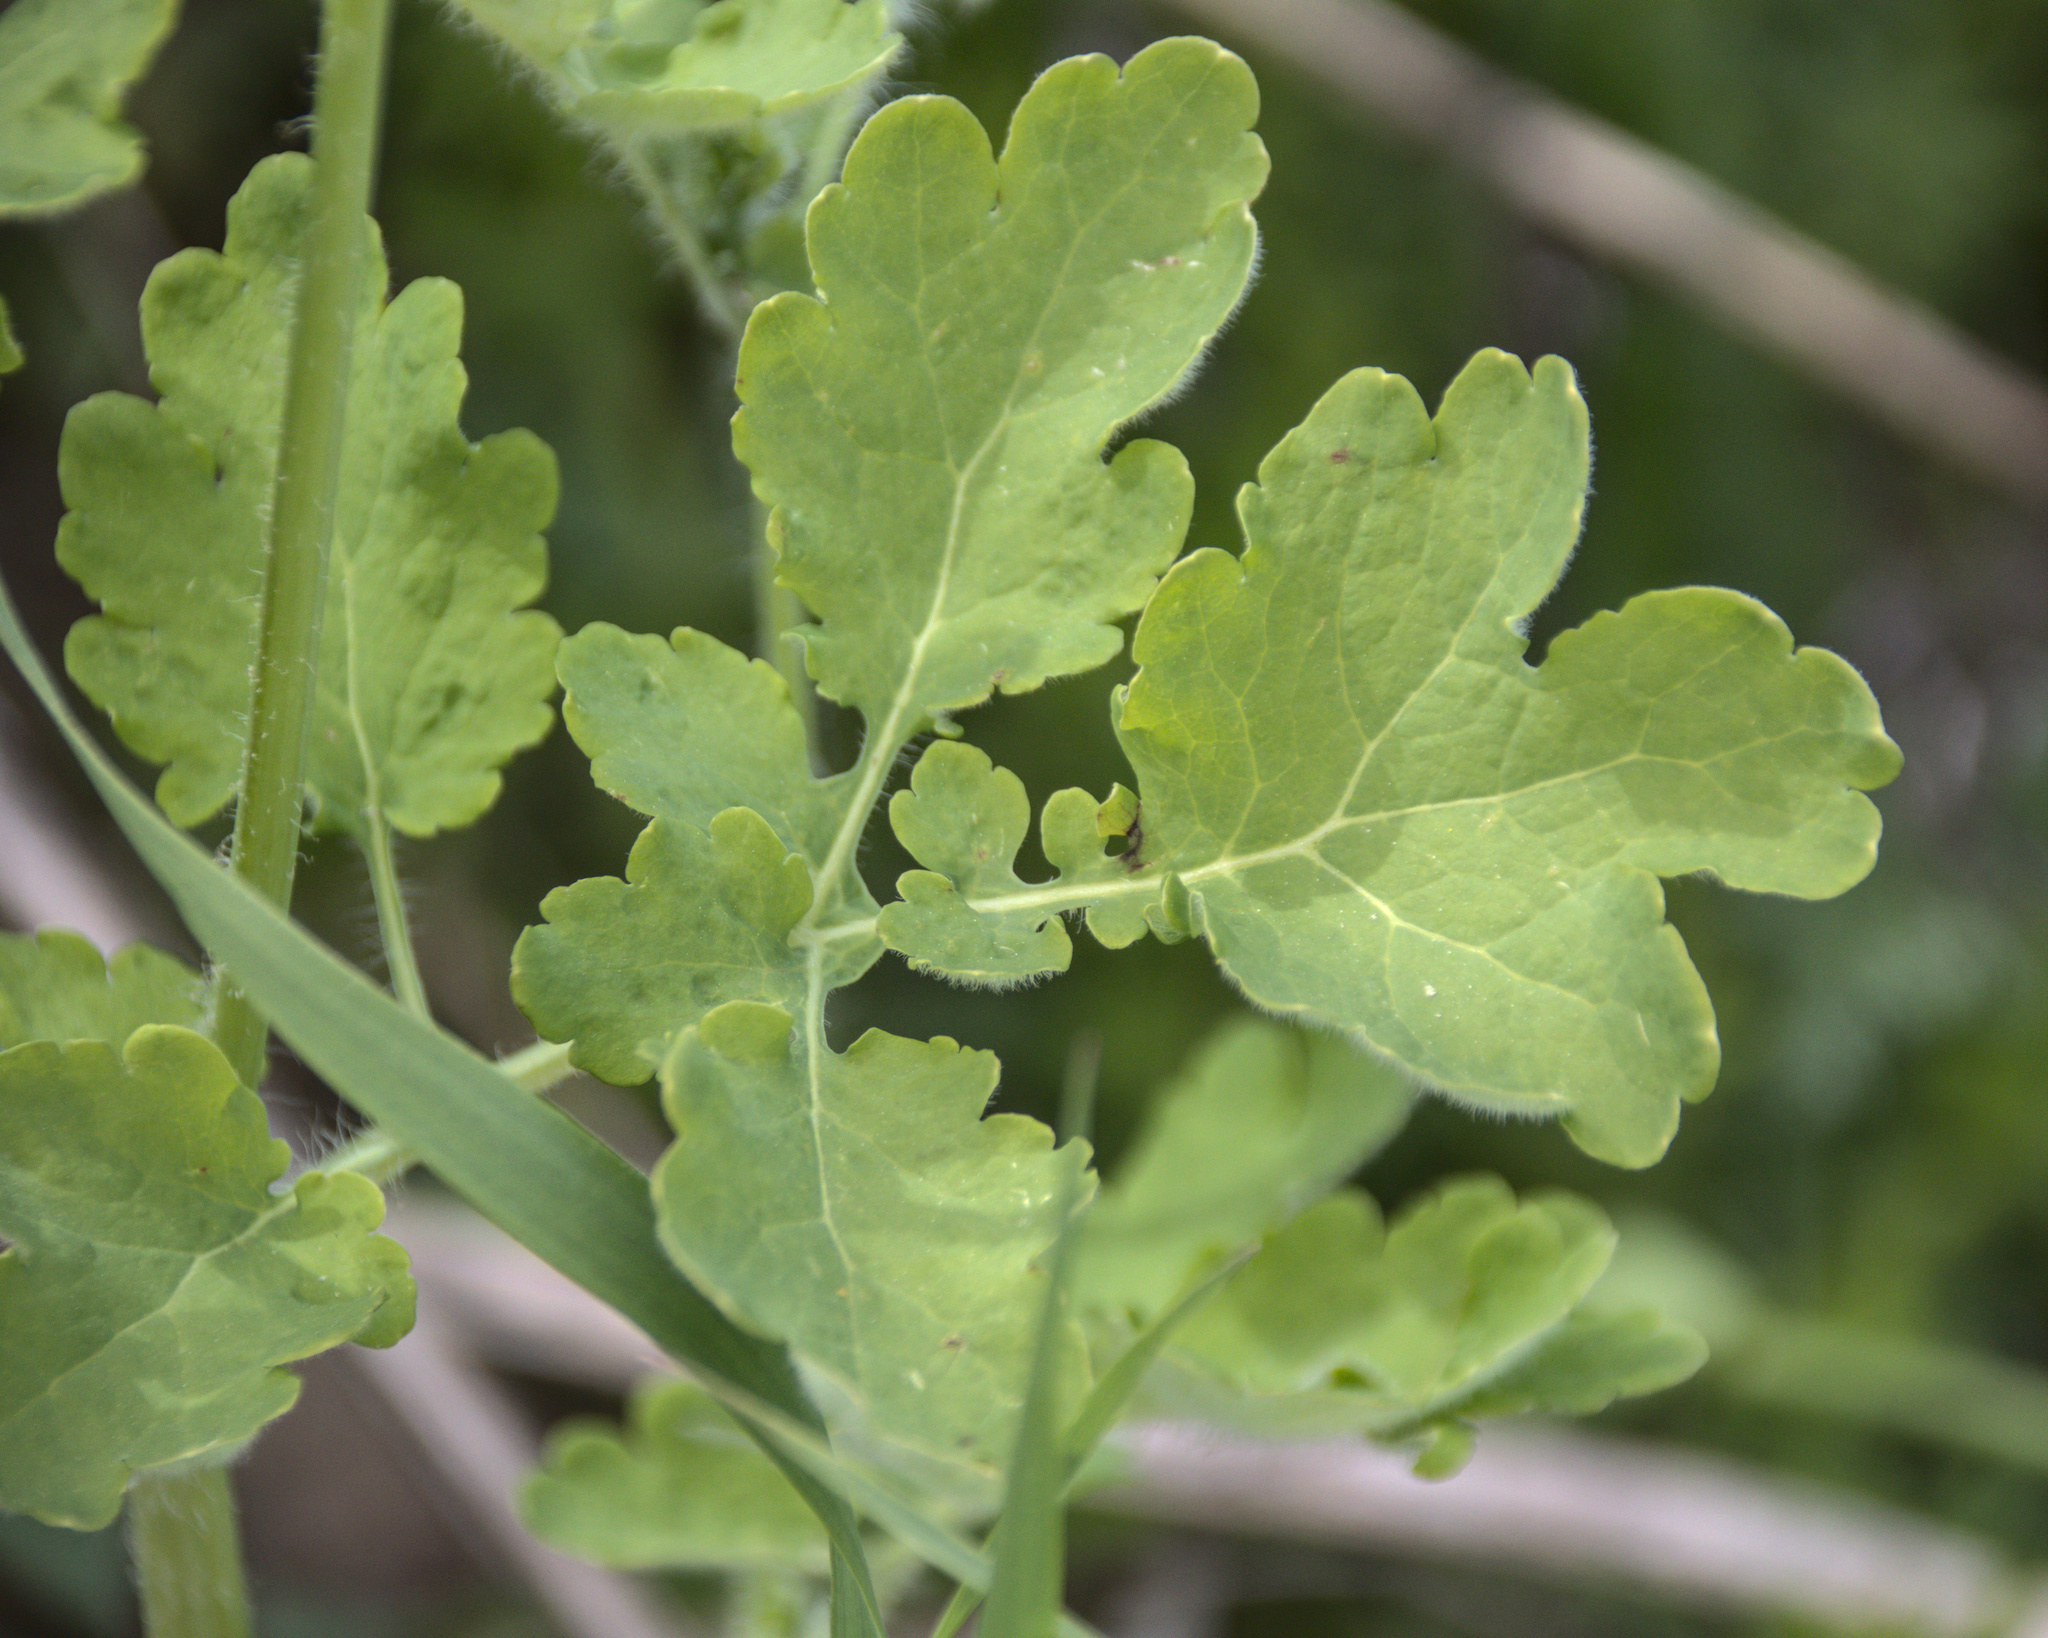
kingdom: Plantae
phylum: Tracheophyta
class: Magnoliopsida
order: Ranunculales
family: Papaveraceae
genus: Chelidonium
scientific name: Chelidonium majus
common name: Greater celandine
